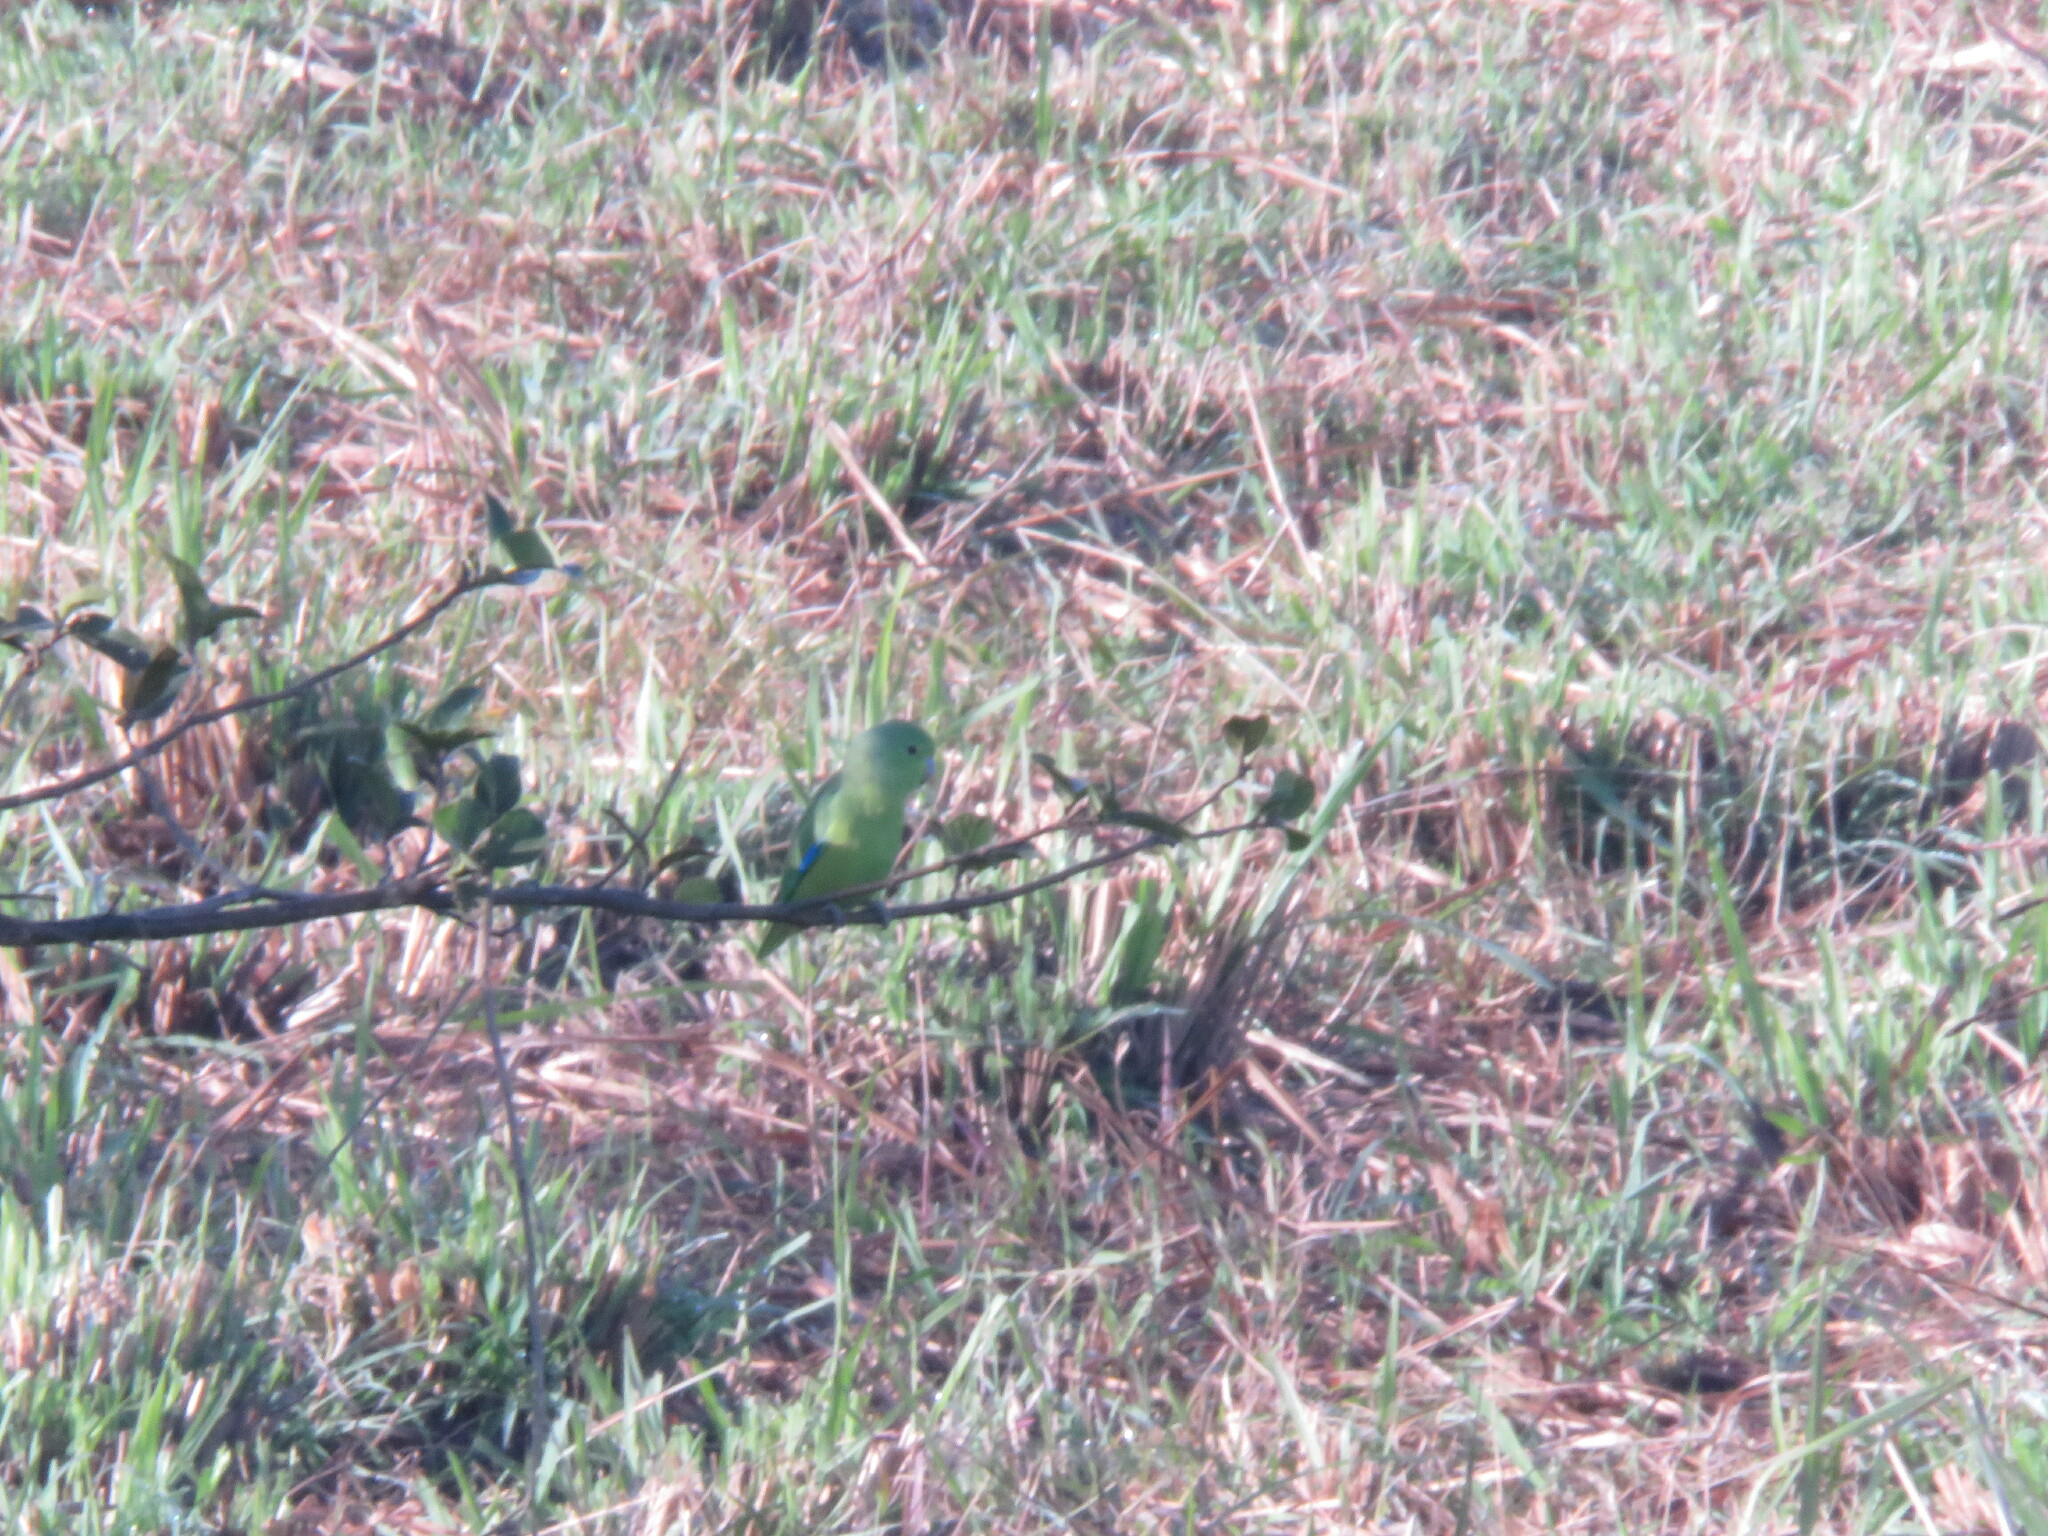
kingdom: Animalia
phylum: Chordata
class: Aves
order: Psittaciformes
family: Psittacidae
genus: Forpus
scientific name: Forpus xanthopterygius
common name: Blue-winged parrotlet
